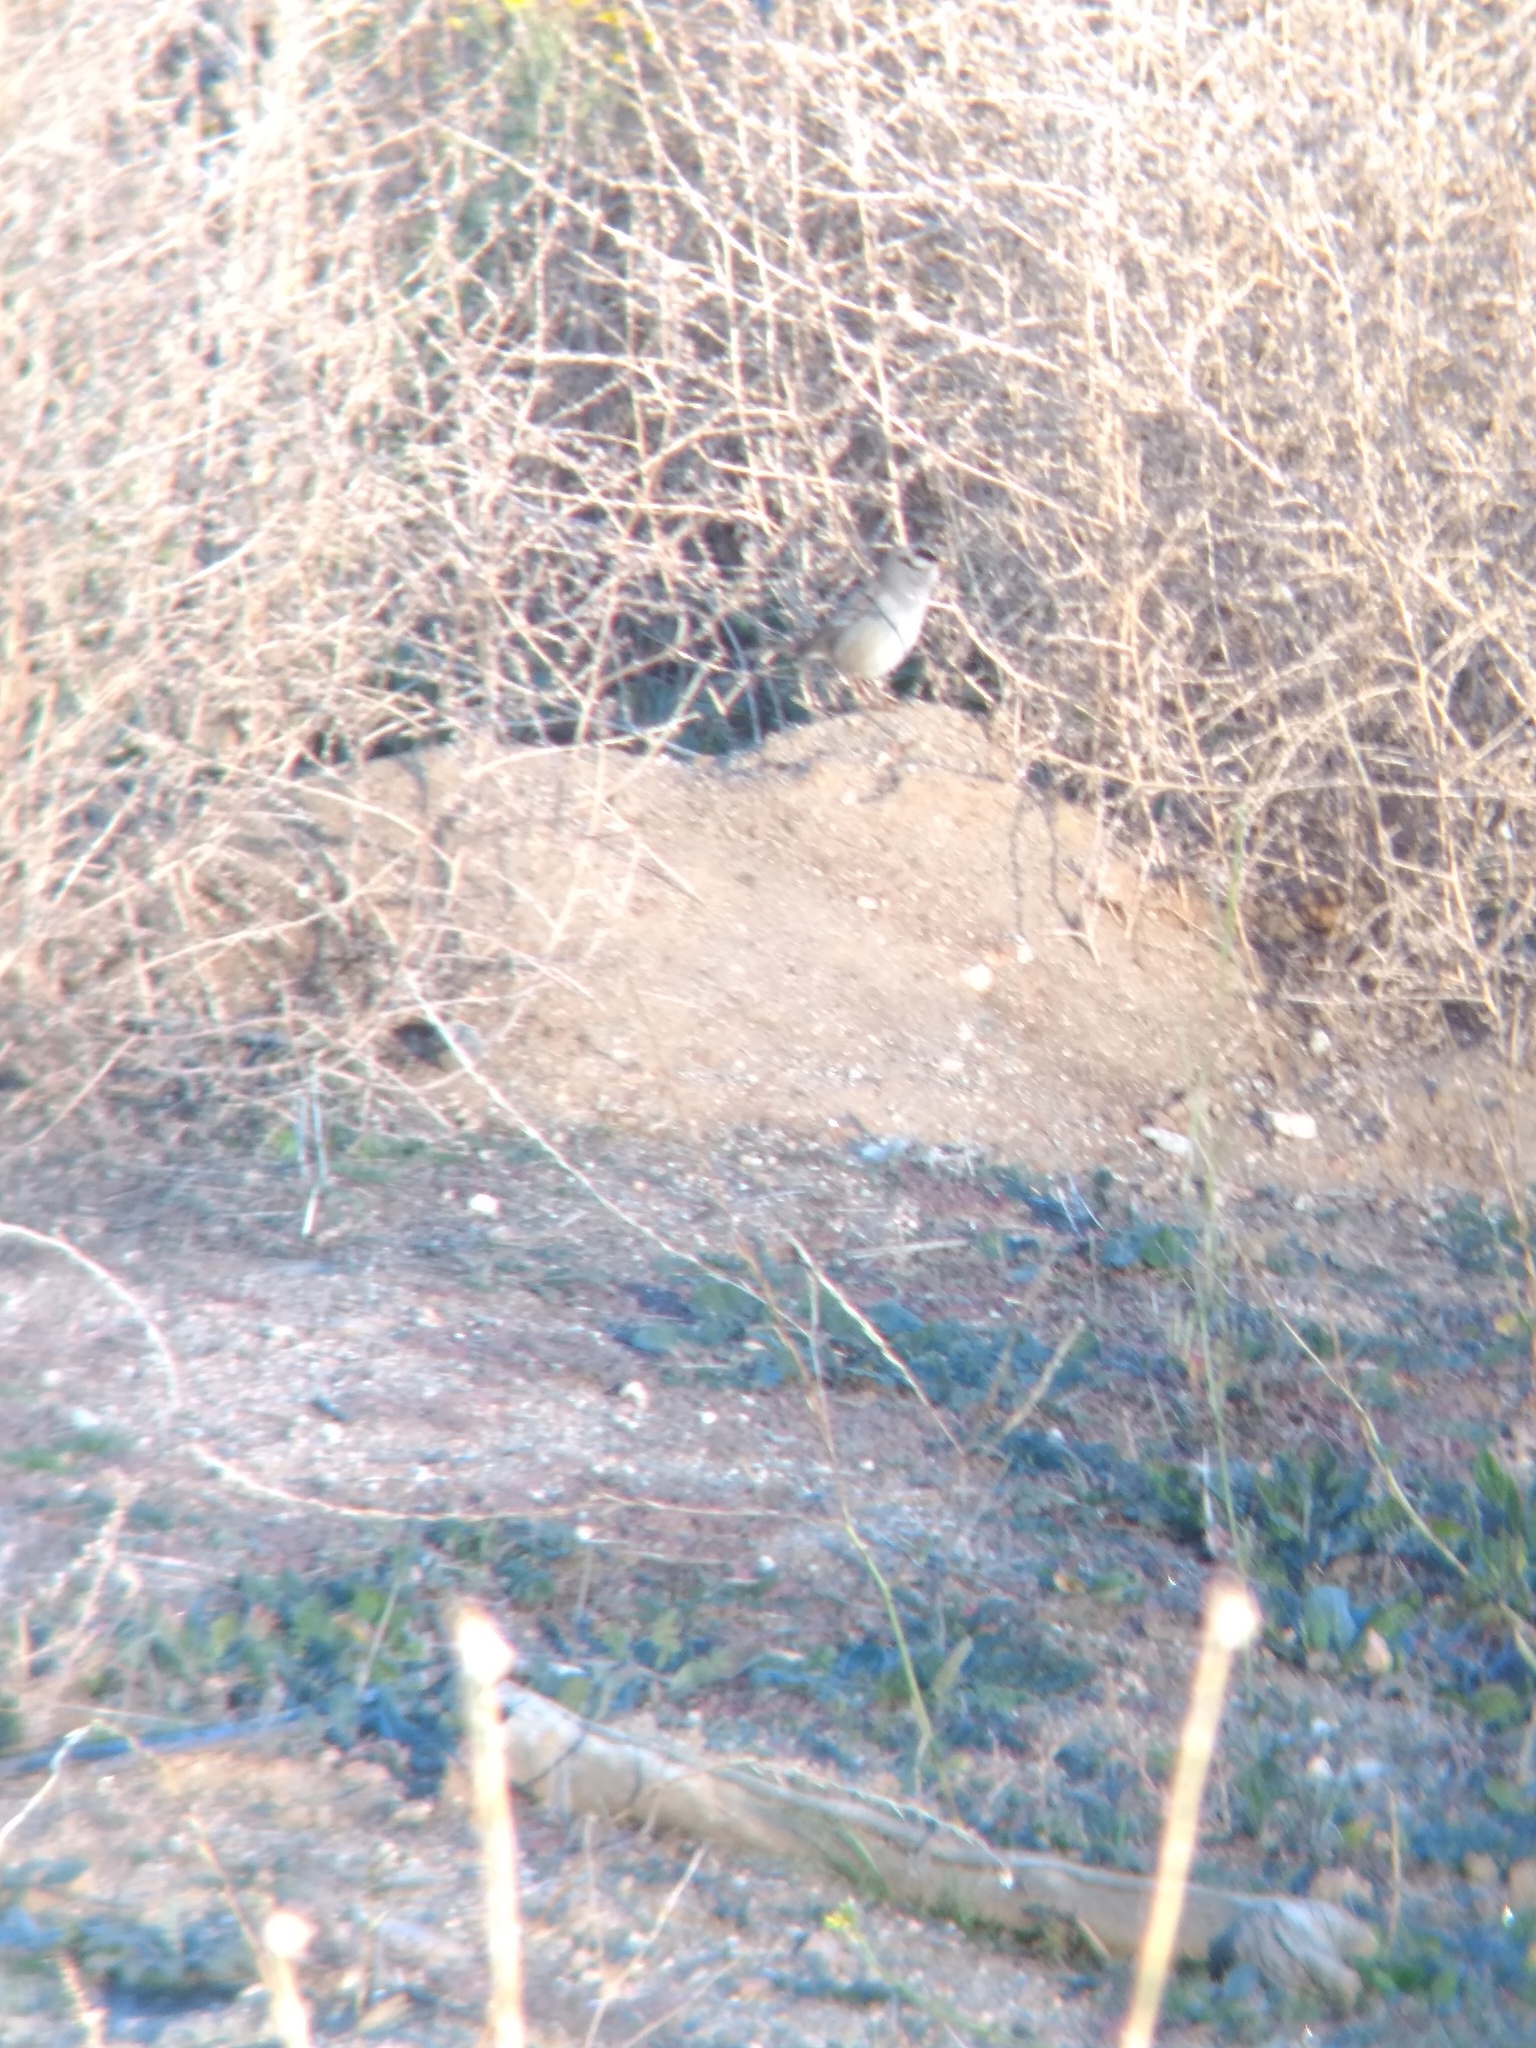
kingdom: Animalia
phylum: Chordata
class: Aves
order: Passeriformes
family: Passerellidae
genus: Zonotrichia
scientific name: Zonotrichia leucophrys
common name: White-crowned sparrow
